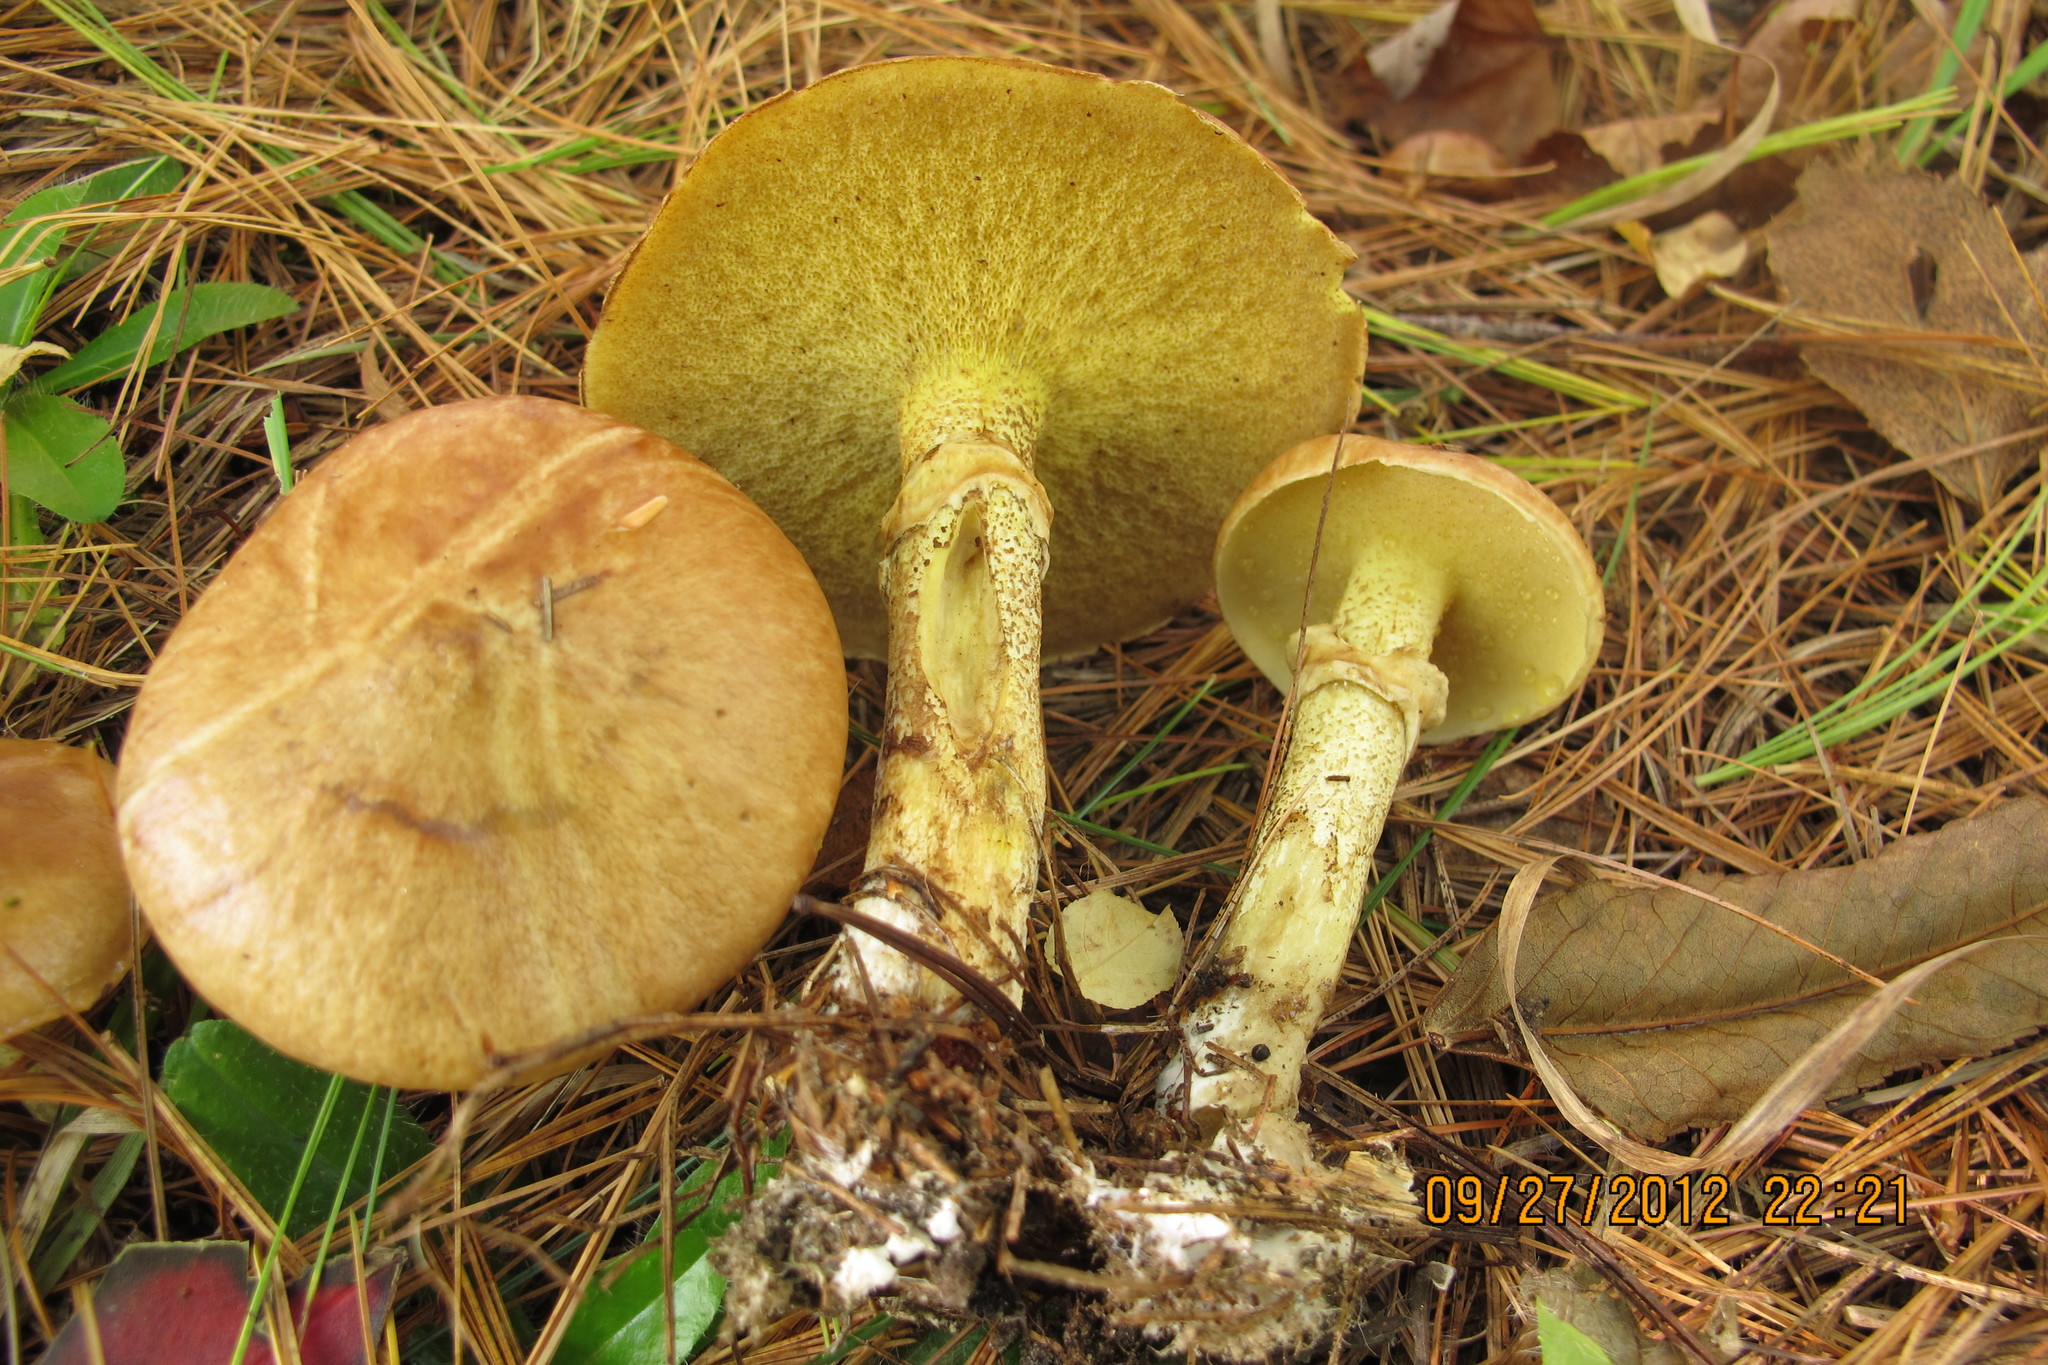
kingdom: Fungi
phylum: Basidiomycota
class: Agaricomycetes
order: Boletales
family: Suillaceae
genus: Suillus
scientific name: Suillus acidus
